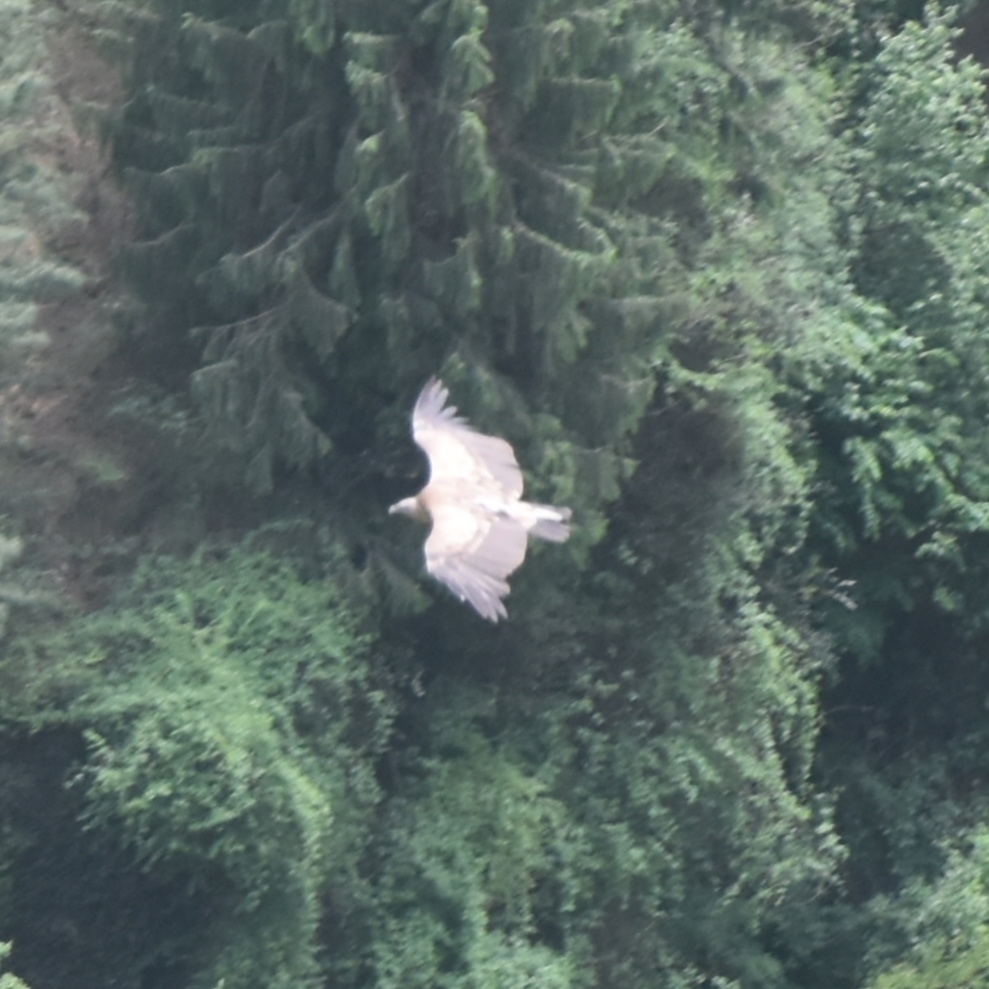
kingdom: Animalia
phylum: Chordata
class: Aves
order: Accipitriformes
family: Accipitridae
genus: Gyps
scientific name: Gyps himalayensis
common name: Himalayan griffon
